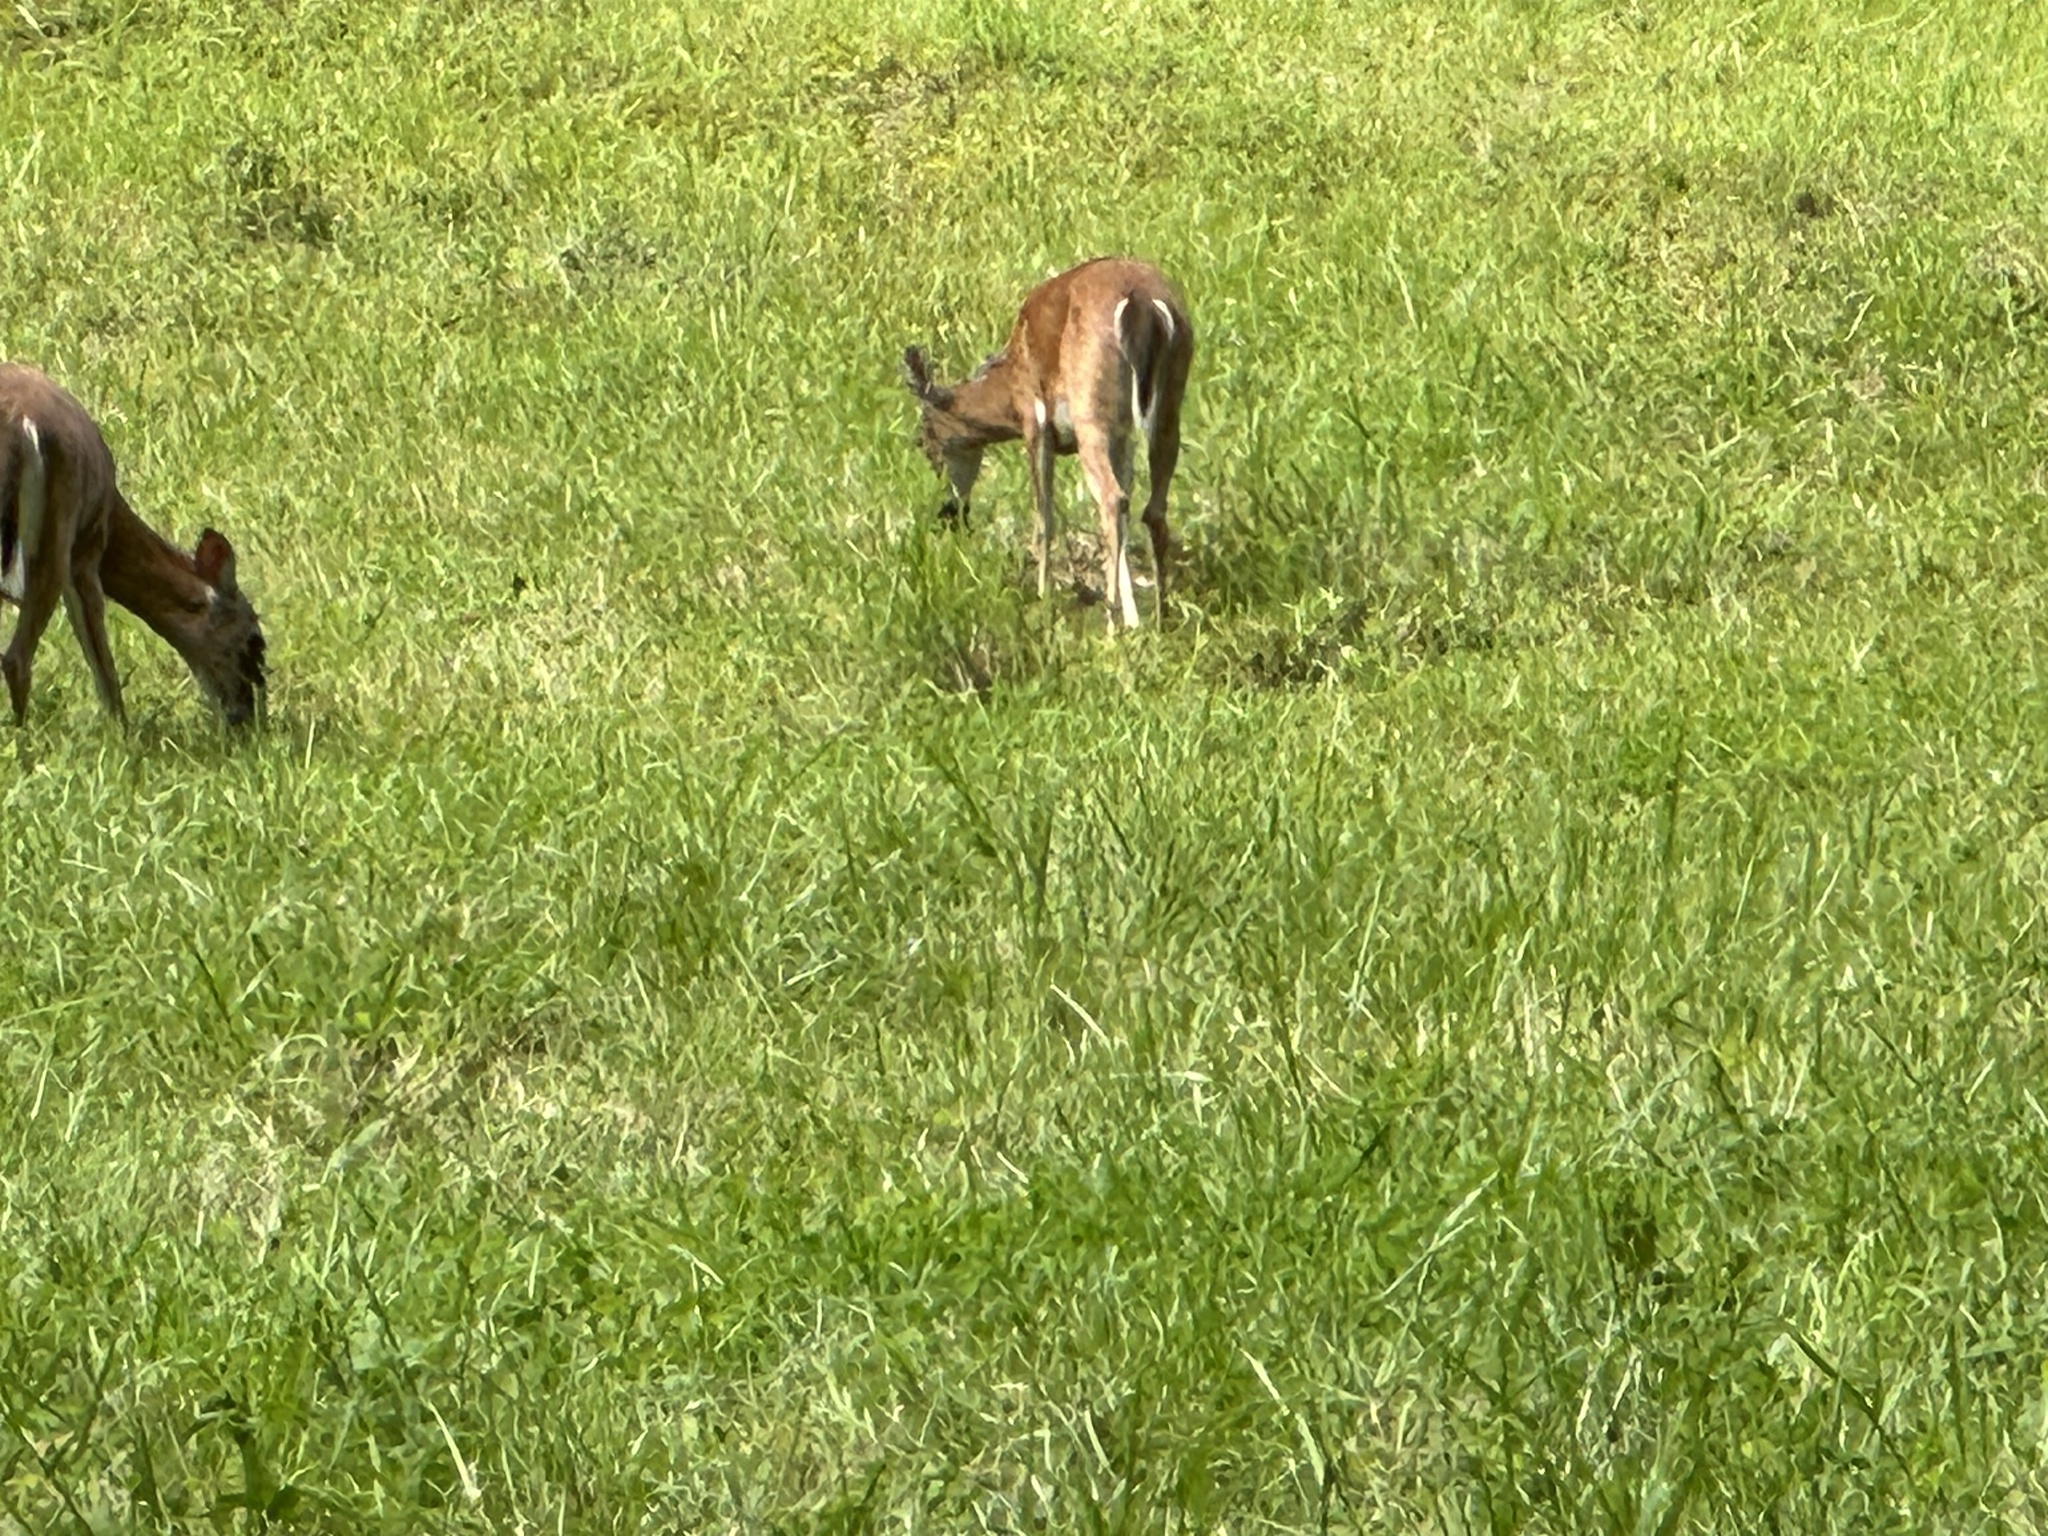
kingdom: Animalia
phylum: Chordata
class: Mammalia
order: Artiodactyla
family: Cervidae
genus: Odocoileus
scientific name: Odocoileus virginianus
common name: White-tailed deer
